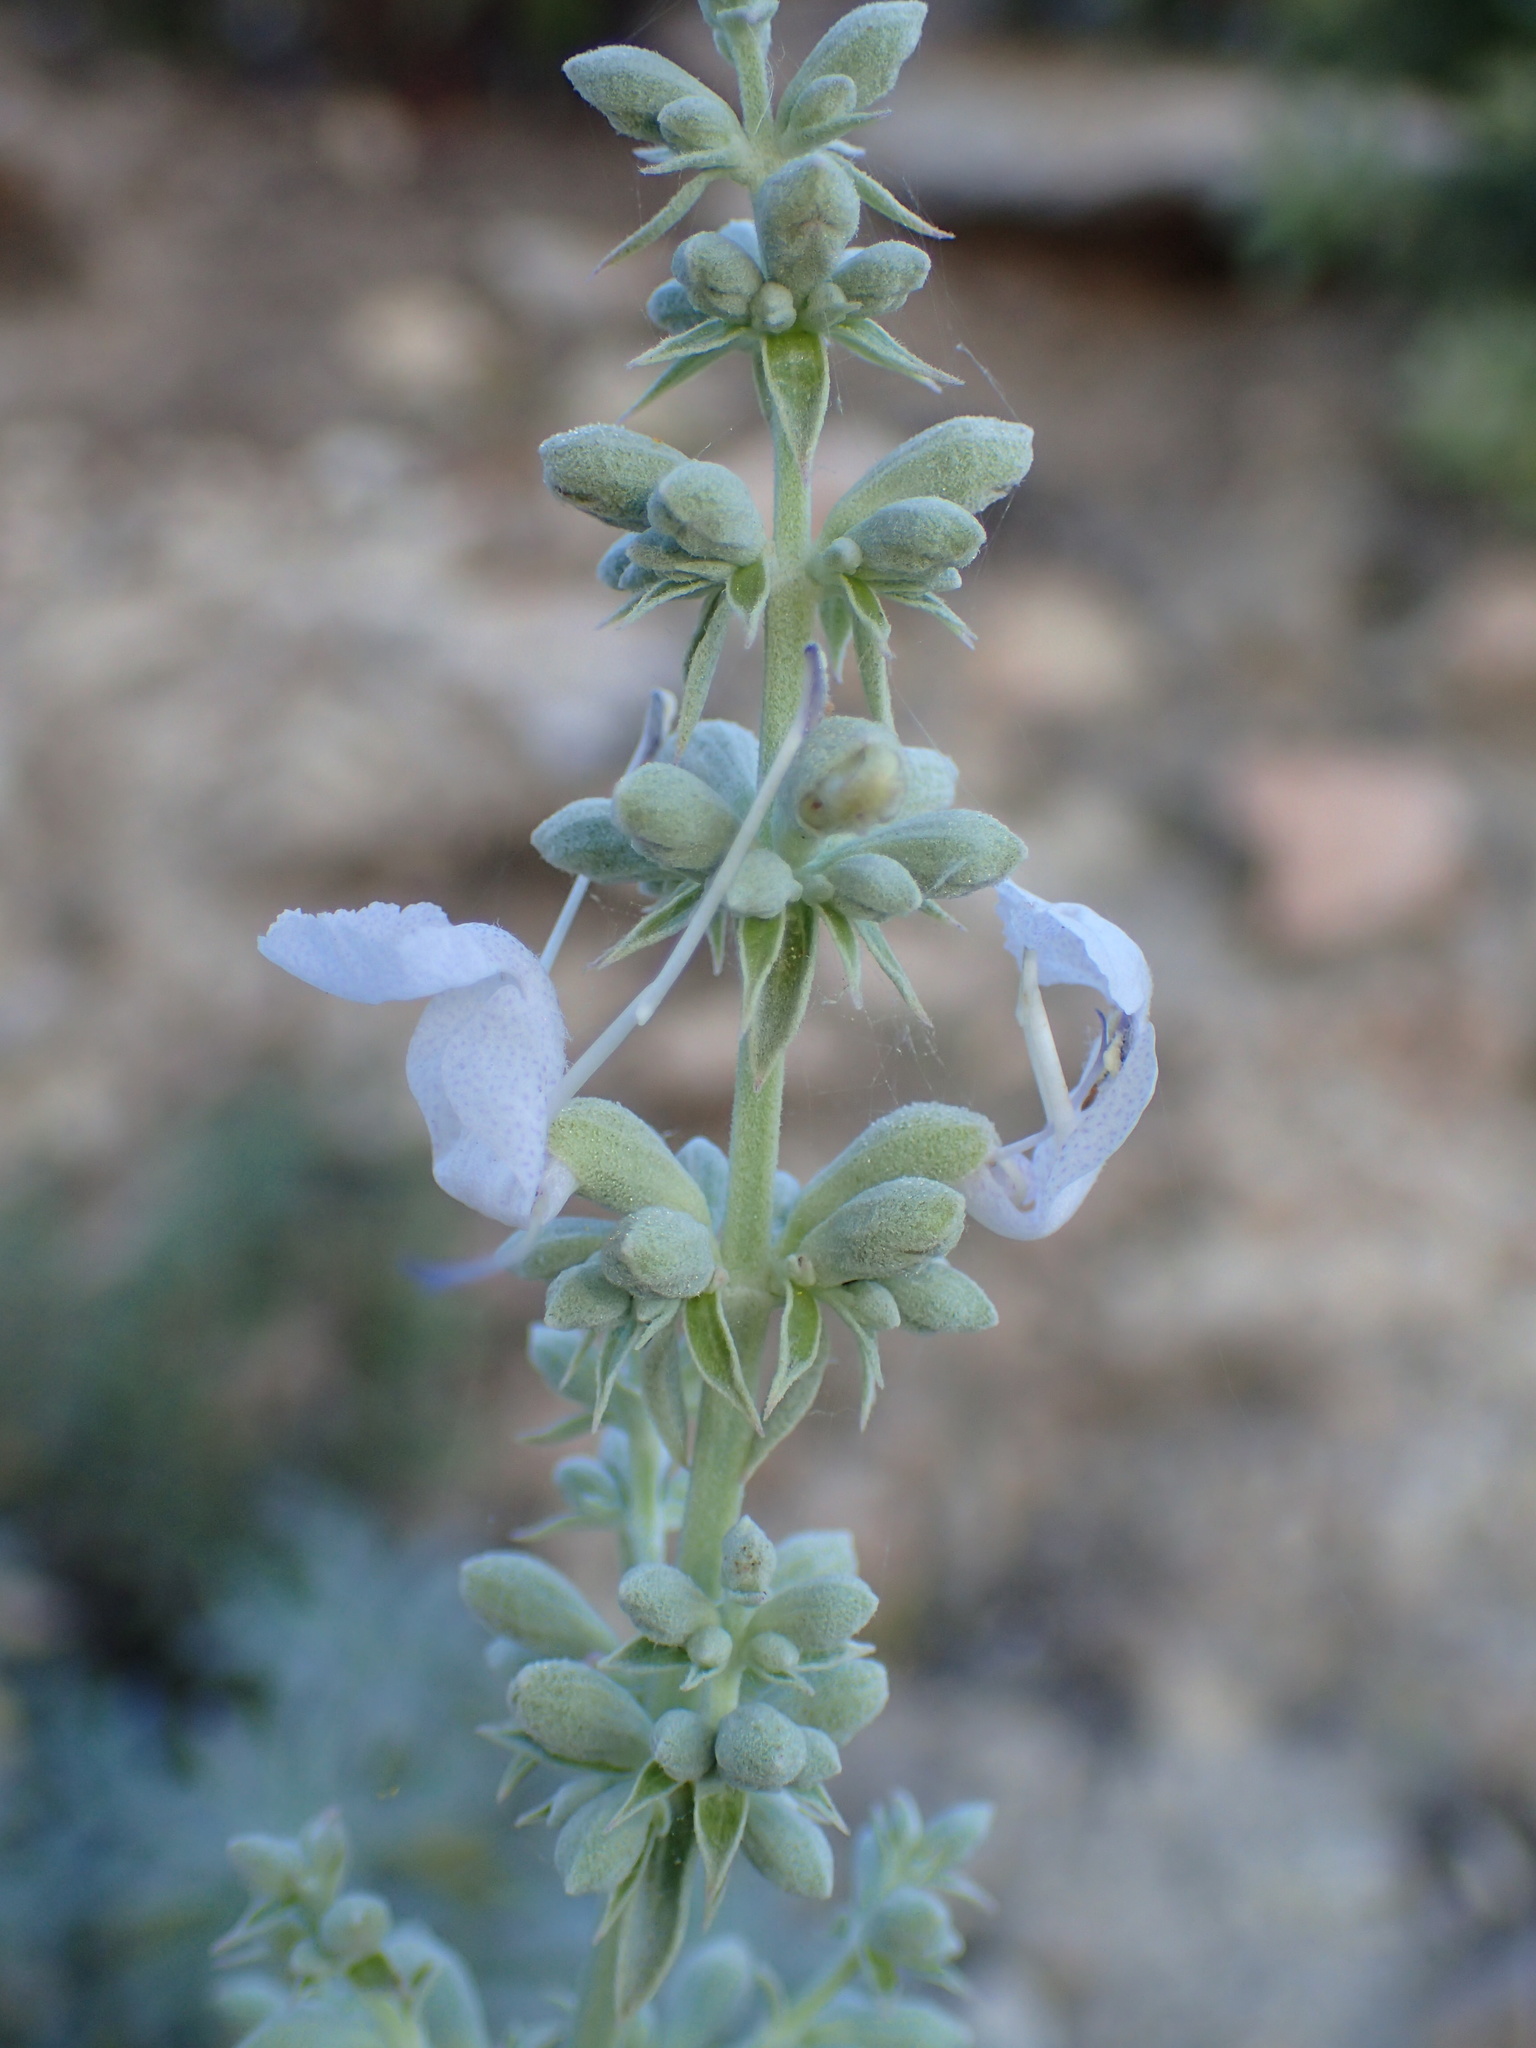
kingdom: Plantae
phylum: Tracheophyta
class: Magnoliopsida
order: Lamiales
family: Lamiaceae
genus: Salvia
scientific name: Salvia apiana
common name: White sage
